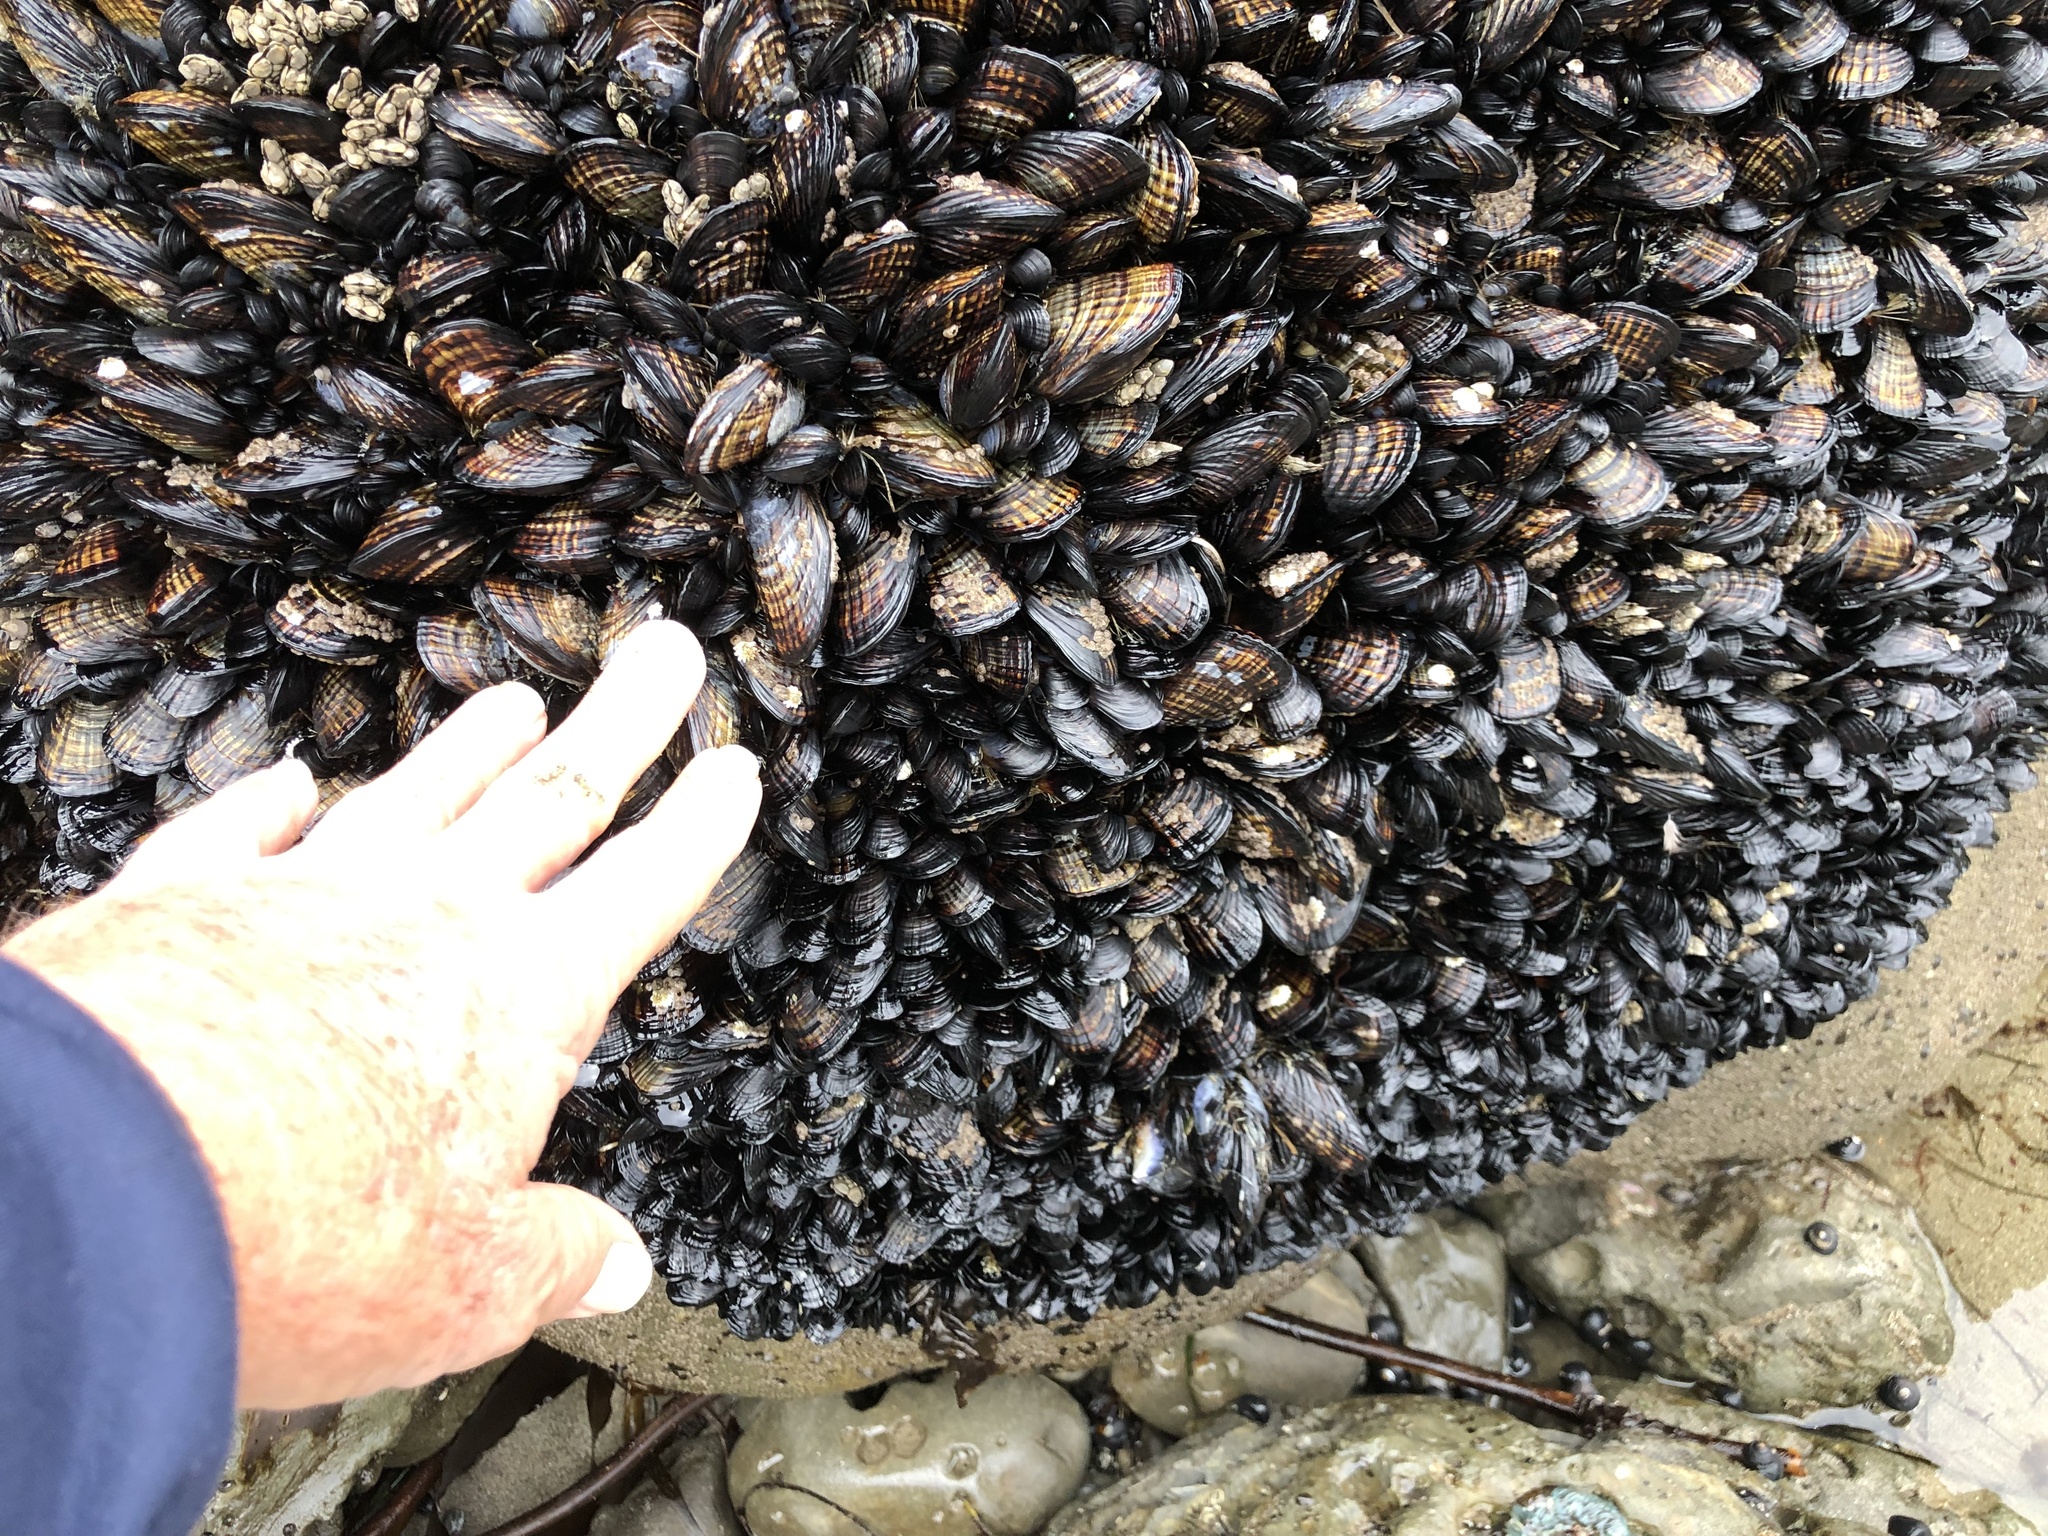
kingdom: Animalia
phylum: Mollusca
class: Bivalvia
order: Mytilida
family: Mytilidae
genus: Mytilus
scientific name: Mytilus californianus
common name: California mussel
